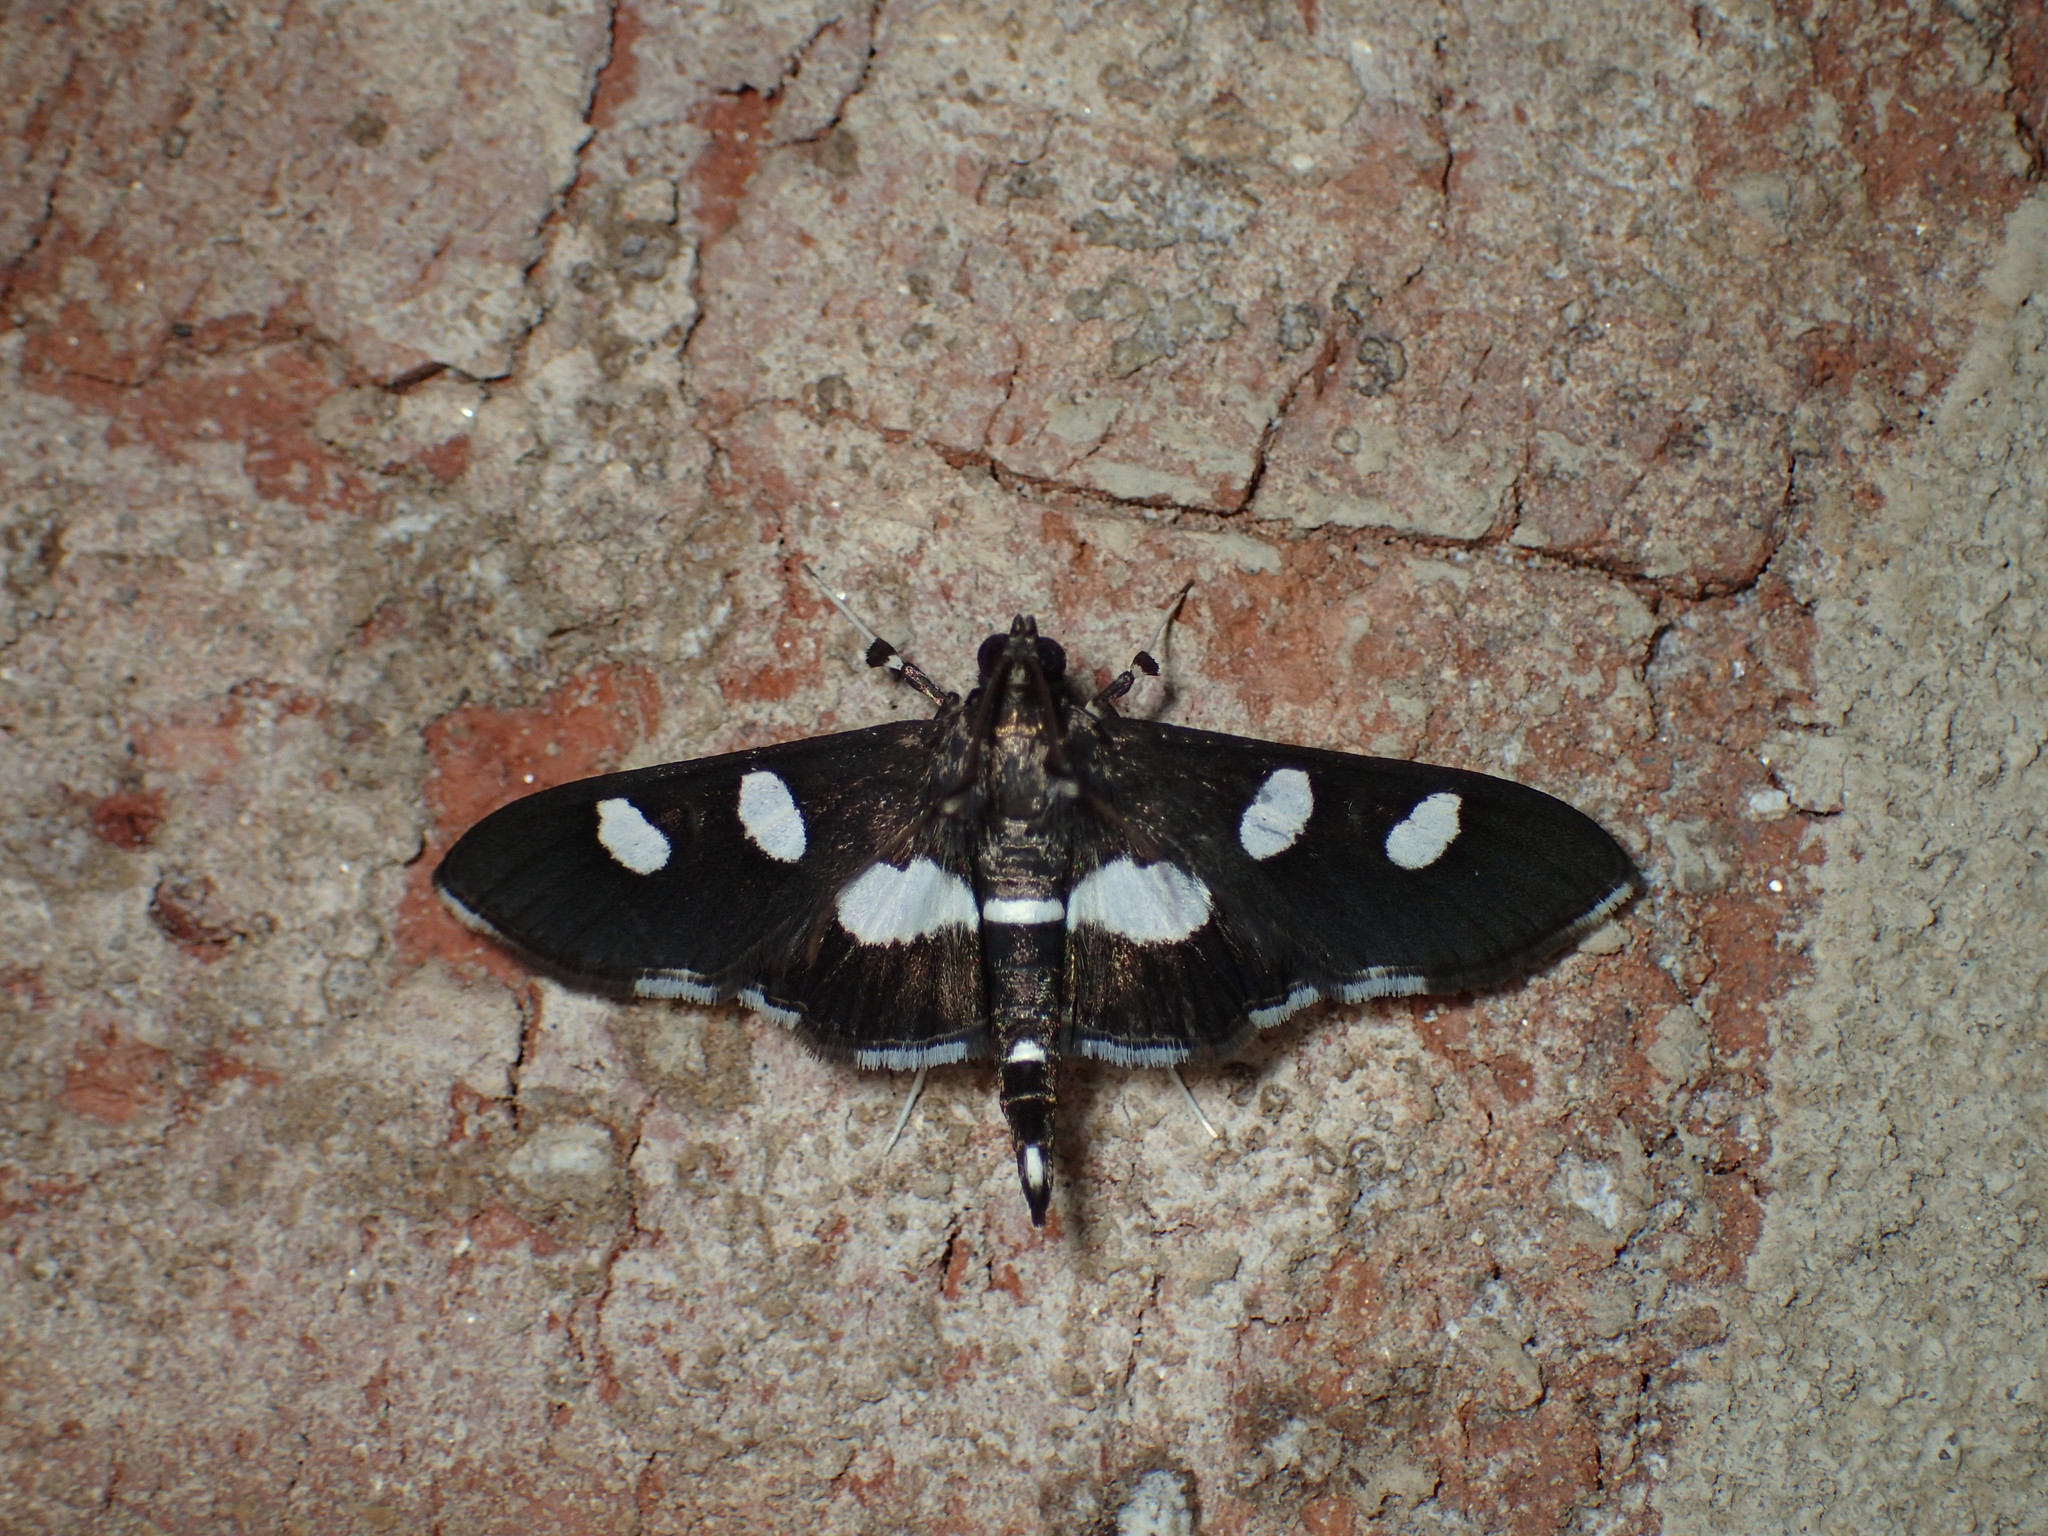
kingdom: Animalia
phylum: Arthropoda
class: Insecta
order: Lepidoptera
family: Crambidae
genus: Desmia
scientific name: Desmia
